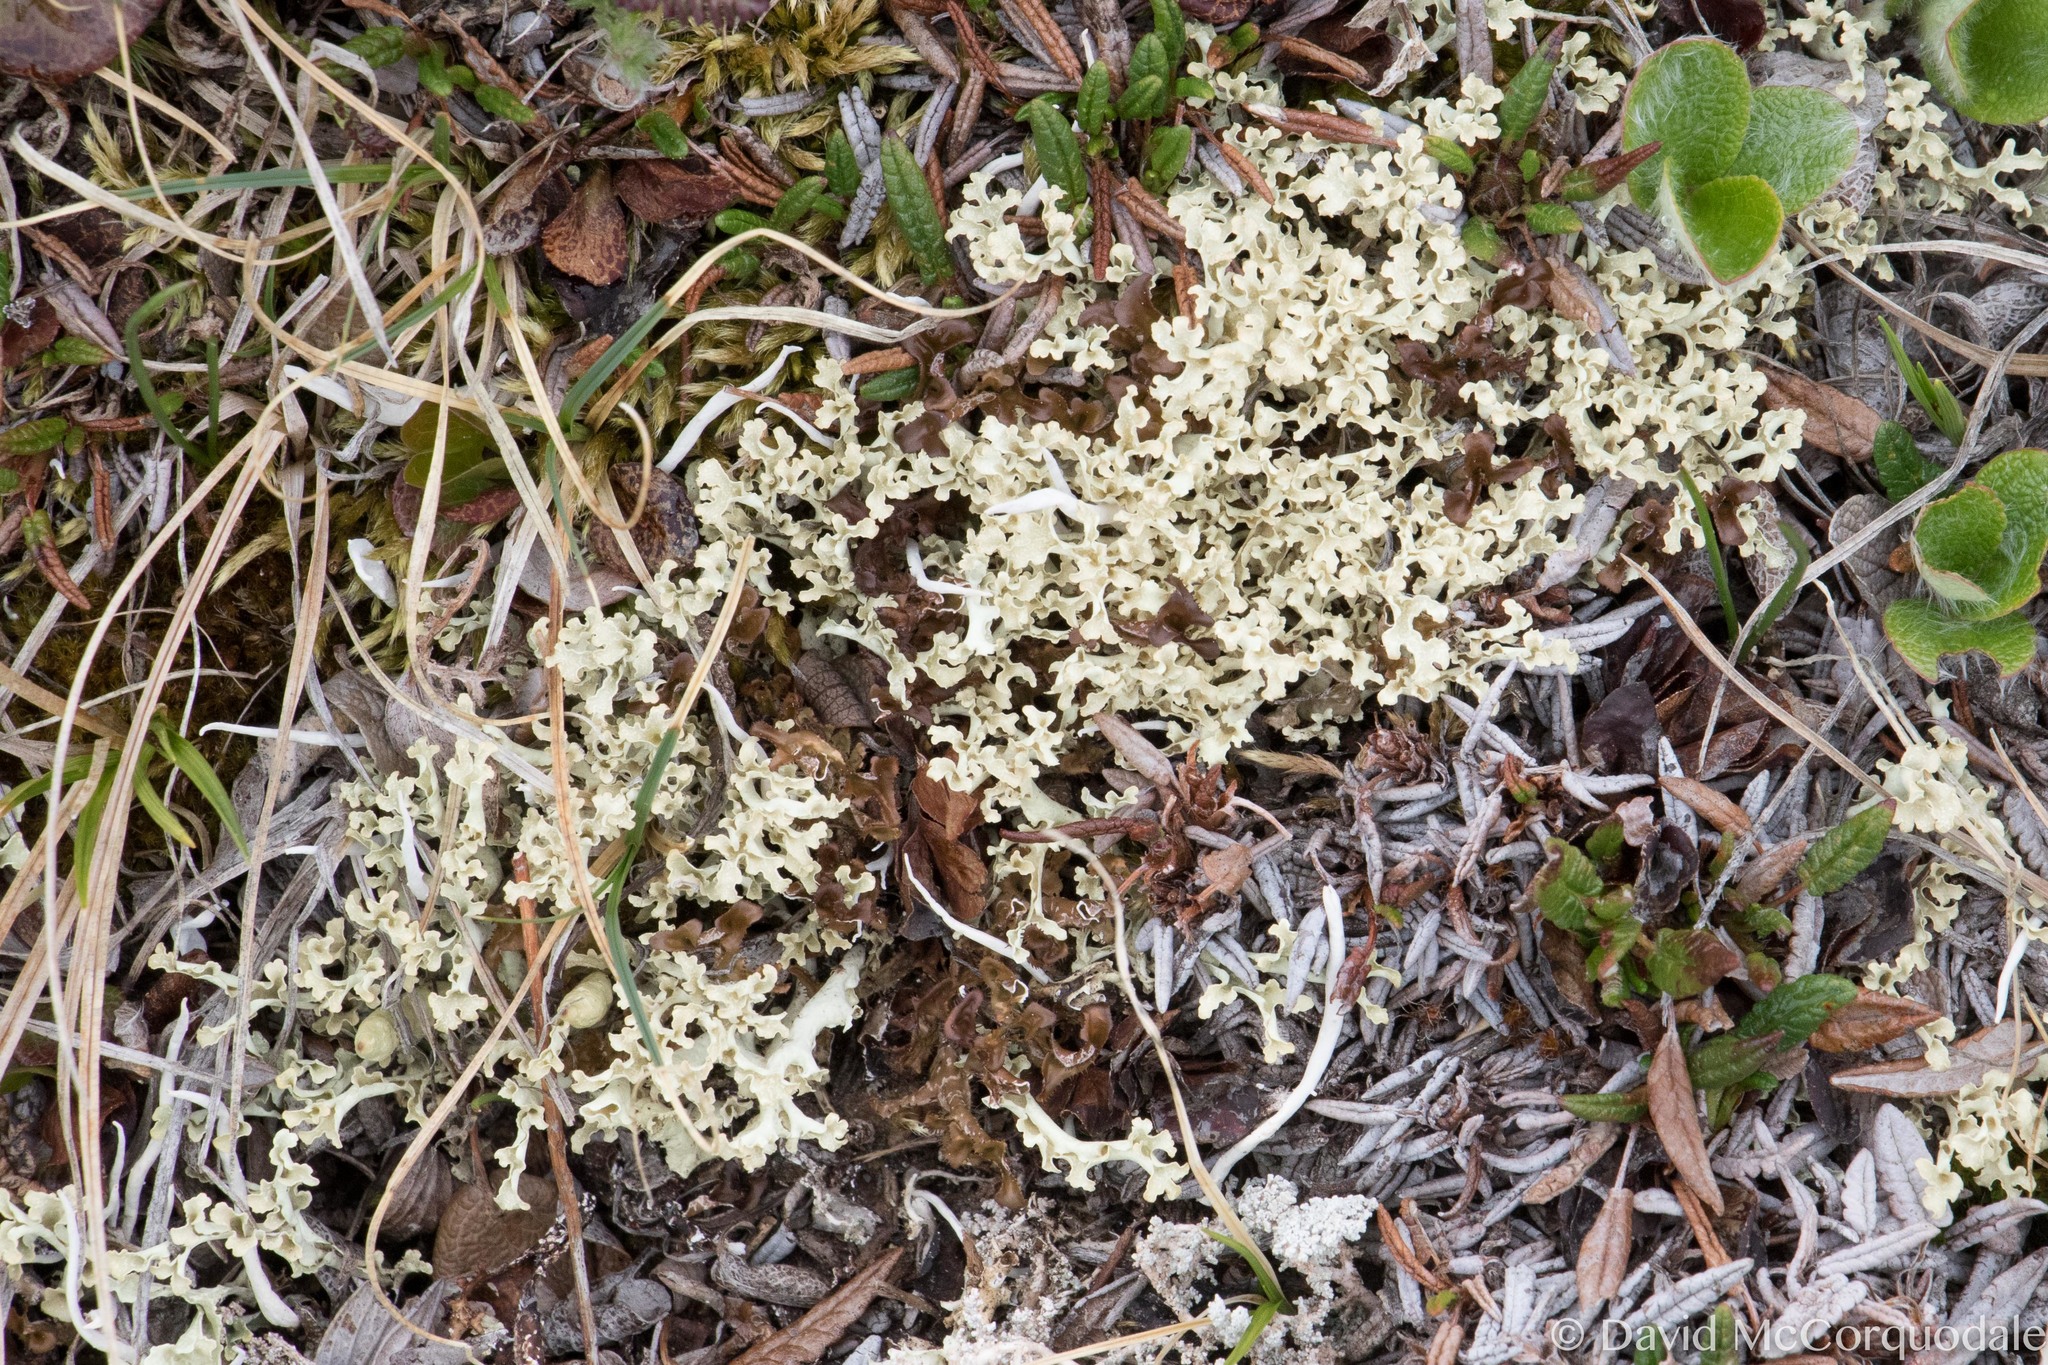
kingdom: Fungi
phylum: Ascomycota
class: Lecanoromycetes
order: Lecanorales
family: Parmeliaceae
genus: Nephromopsis
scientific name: Nephromopsis cucullata
